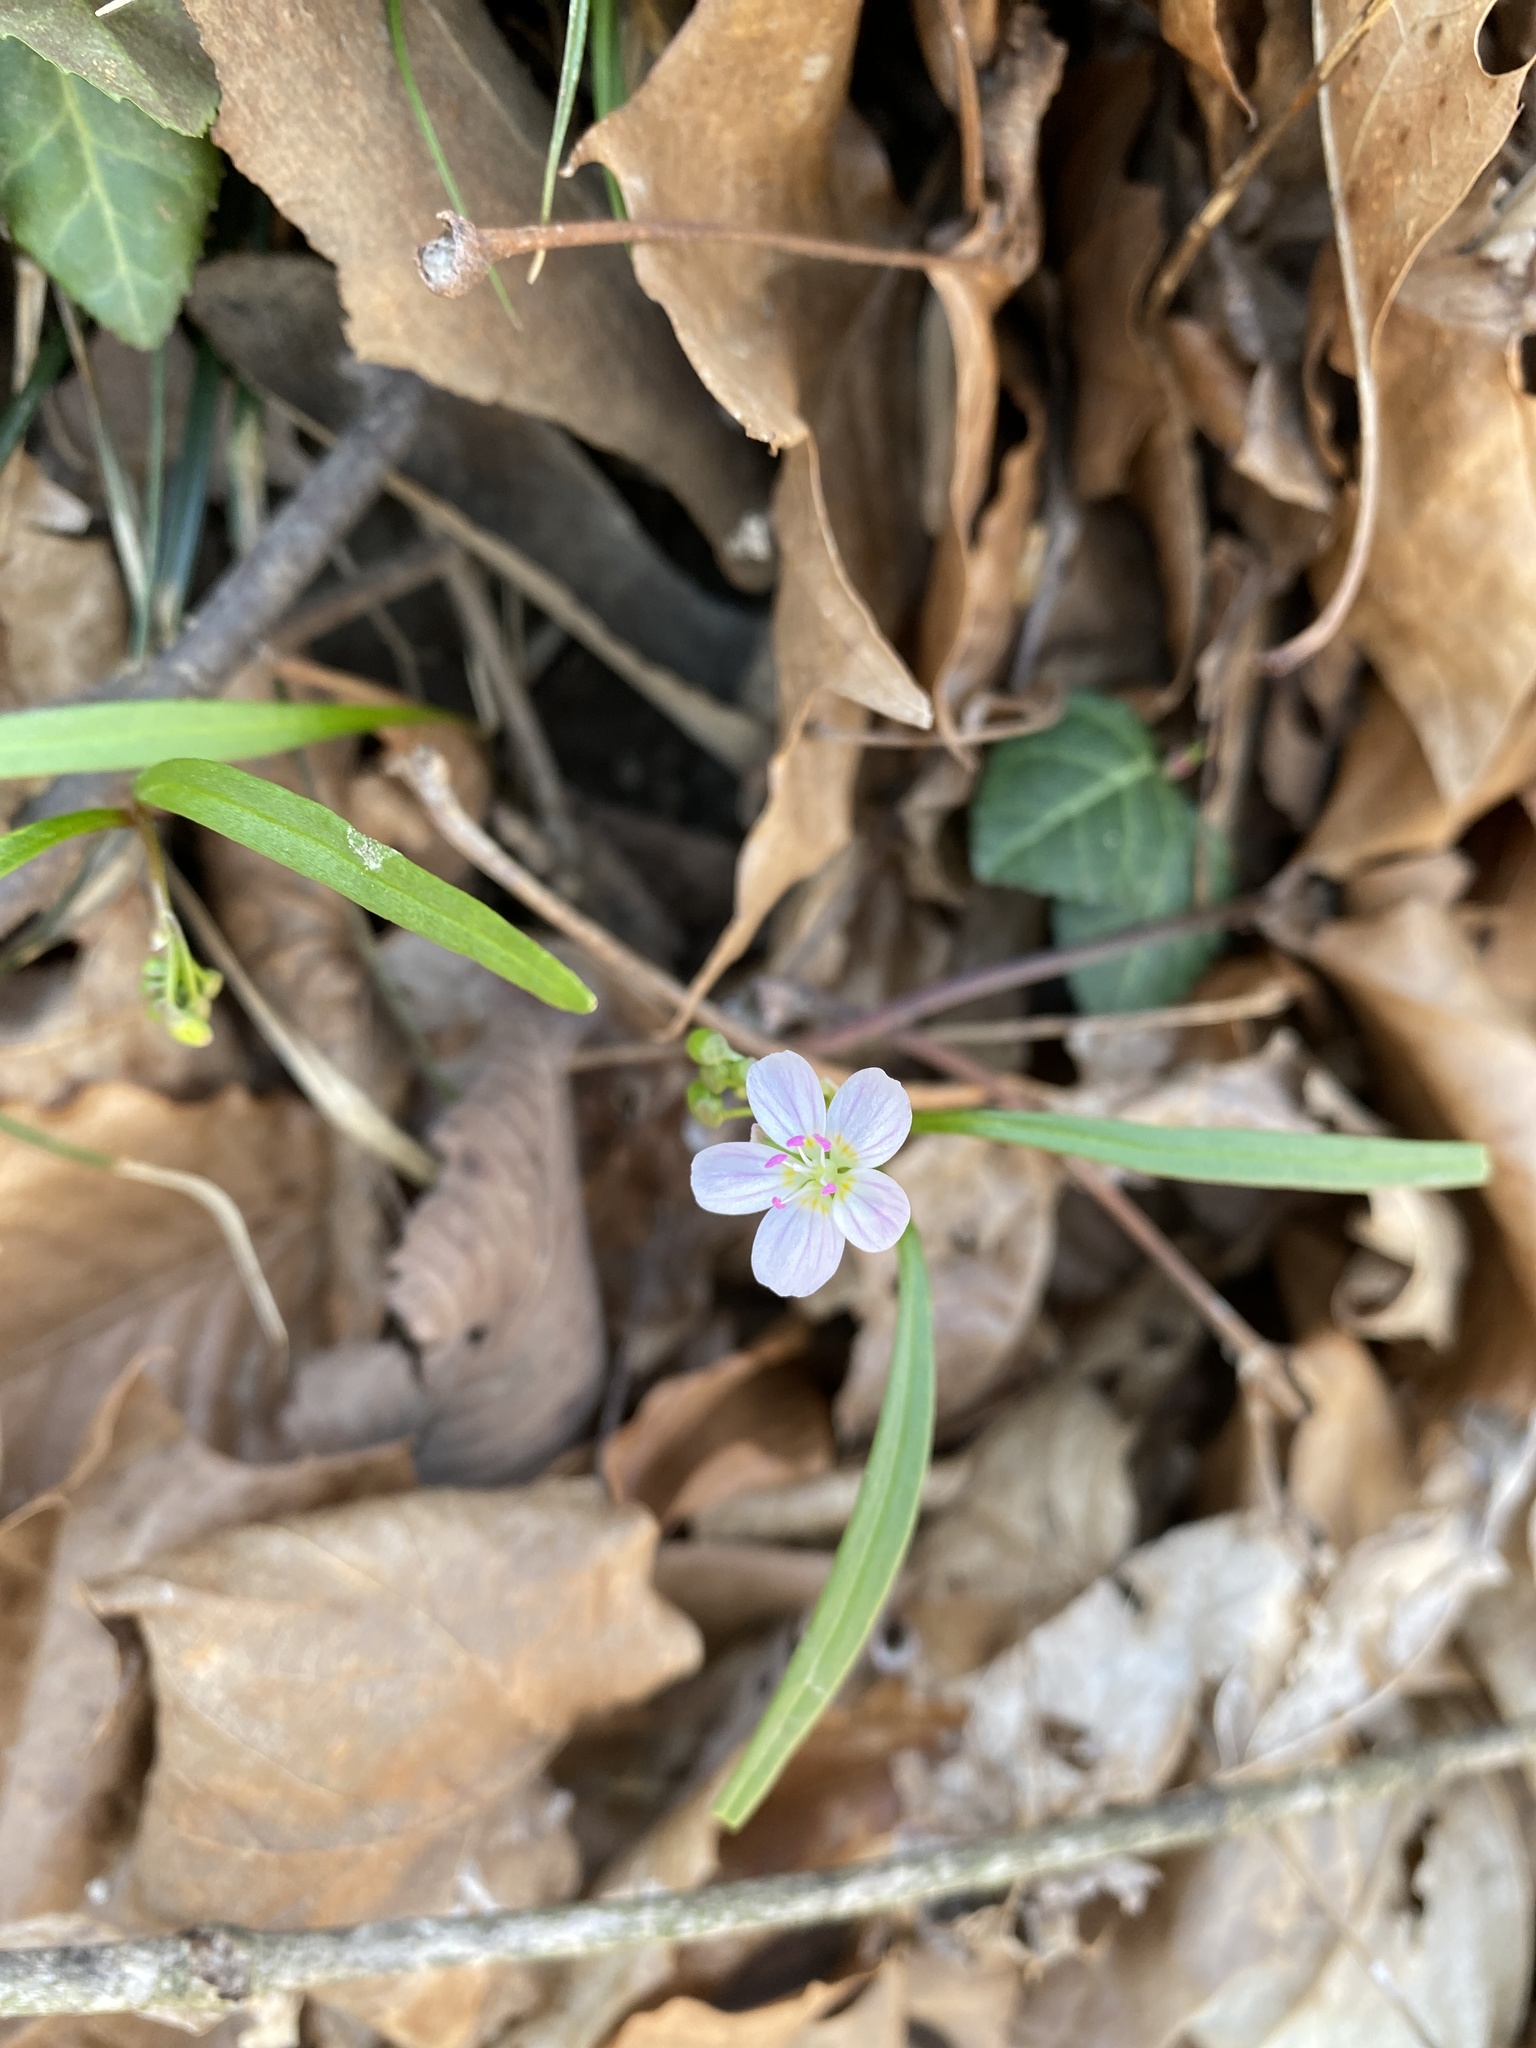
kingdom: Plantae
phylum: Tracheophyta
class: Magnoliopsida
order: Caryophyllales
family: Montiaceae
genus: Claytonia
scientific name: Claytonia virginica
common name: Virginia springbeauty
